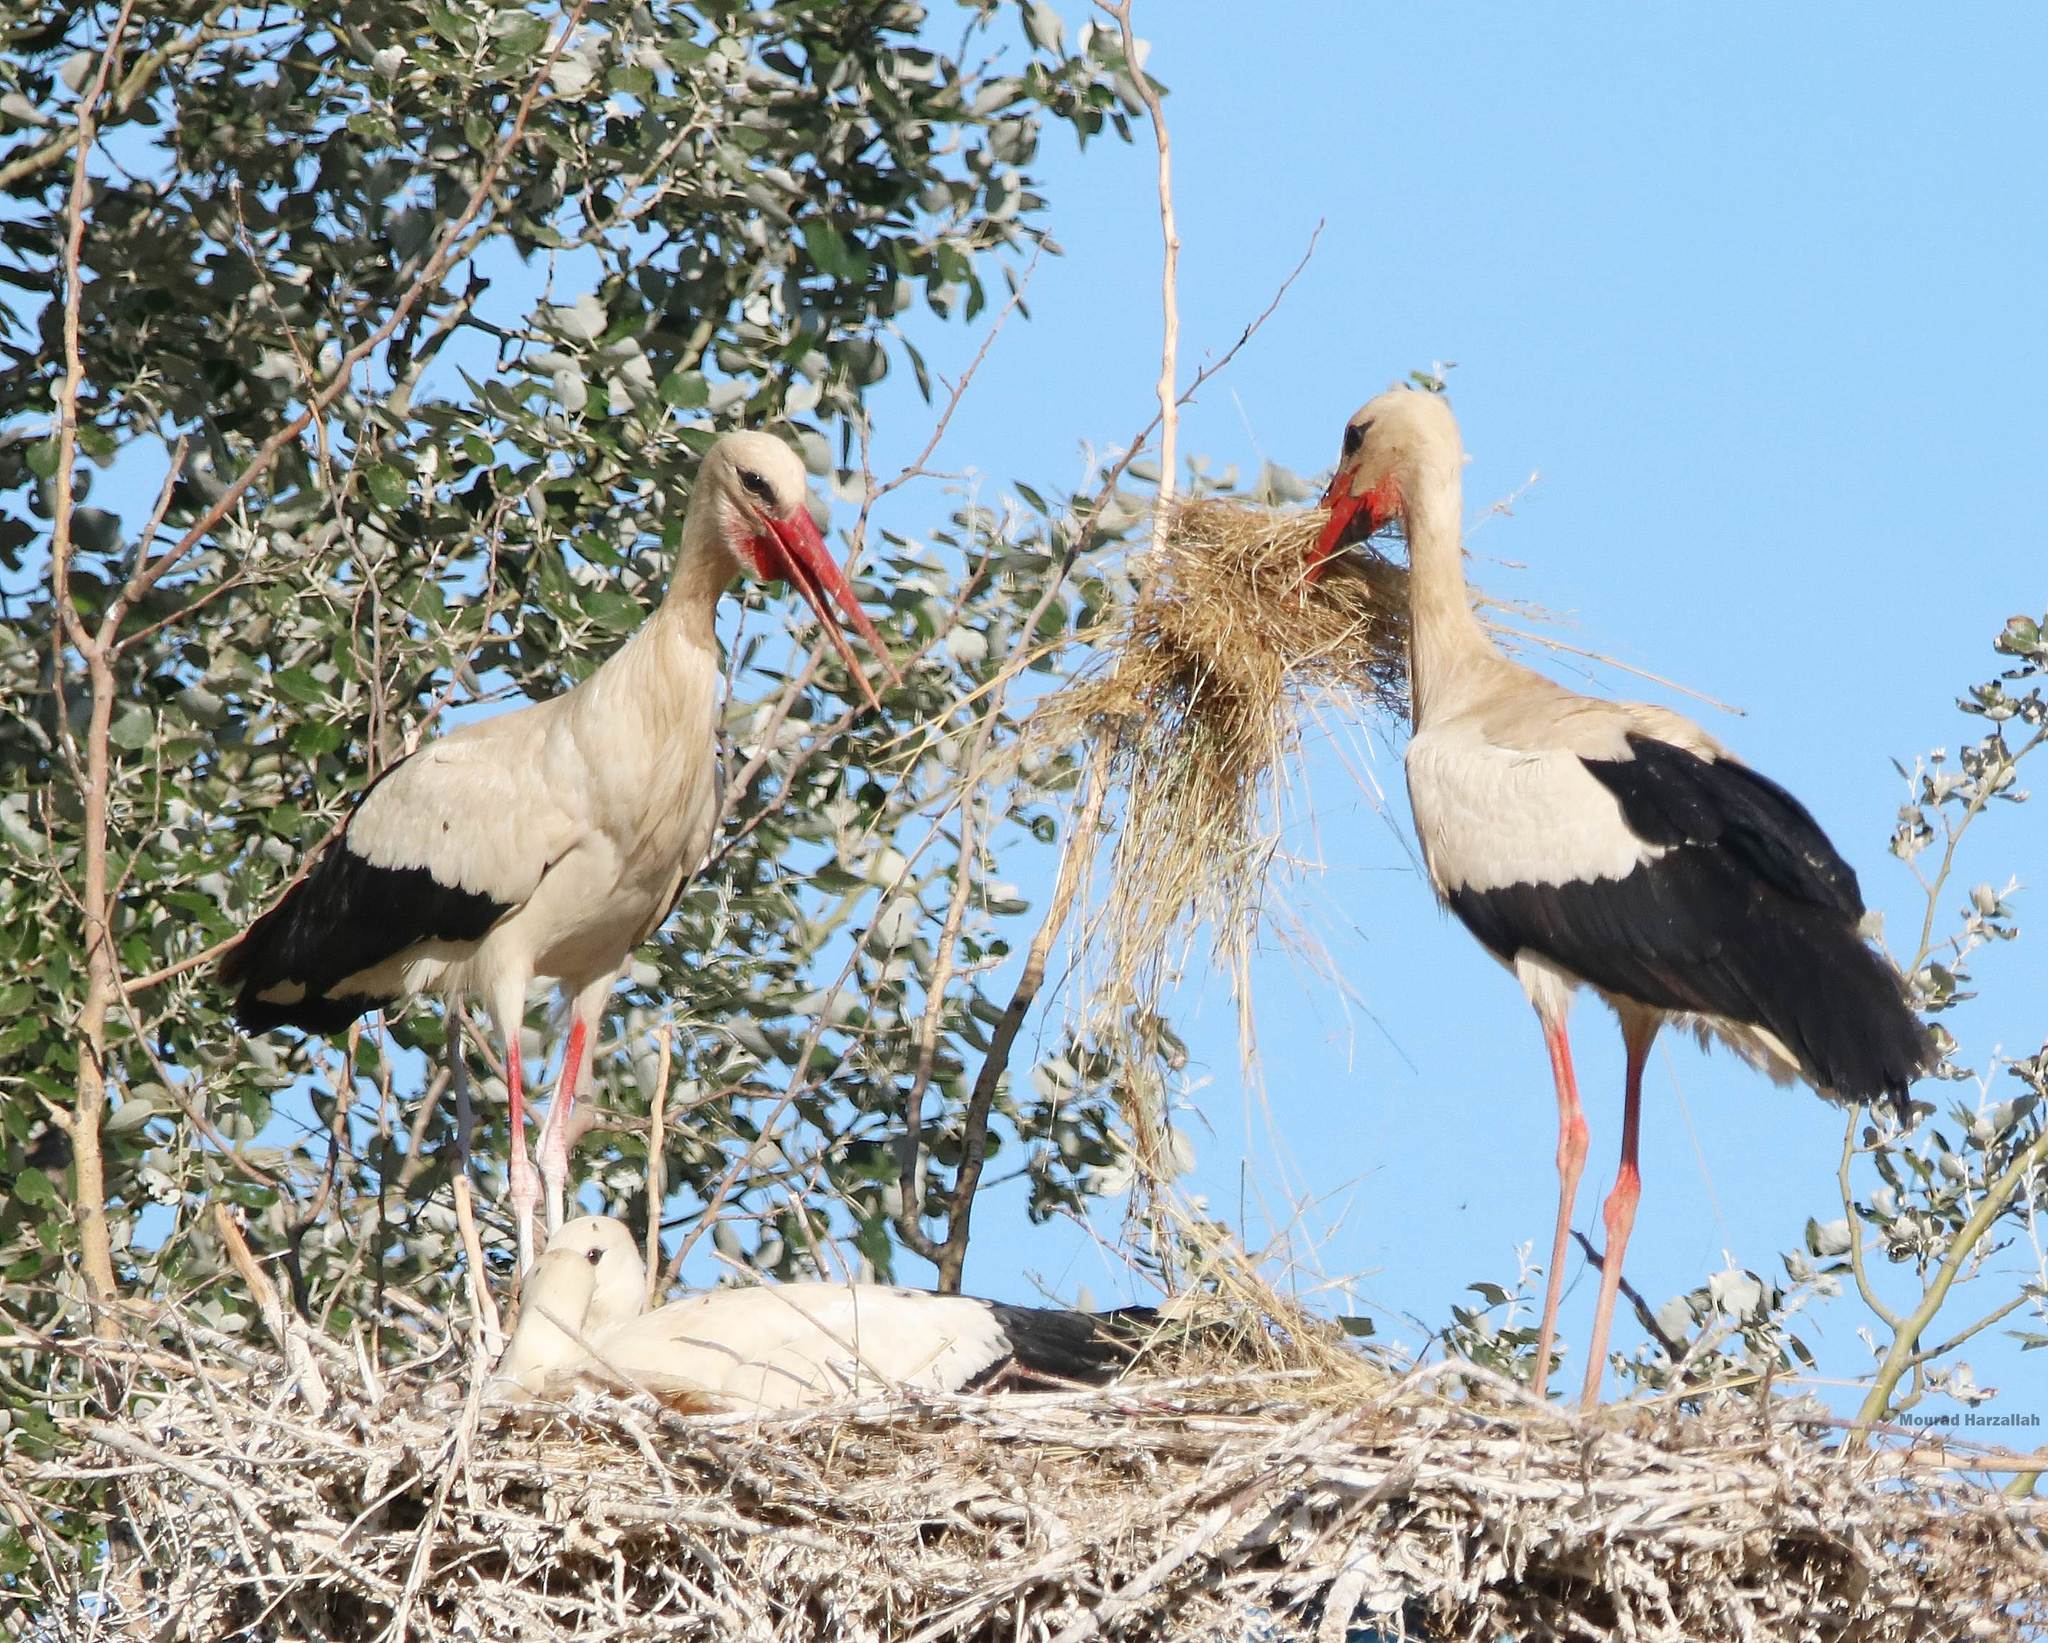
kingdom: Animalia
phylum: Chordata
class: Aves
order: Ciconiiformes
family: Ciconiidae
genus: Ciconia
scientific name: Ciconia ciconia
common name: White stork
